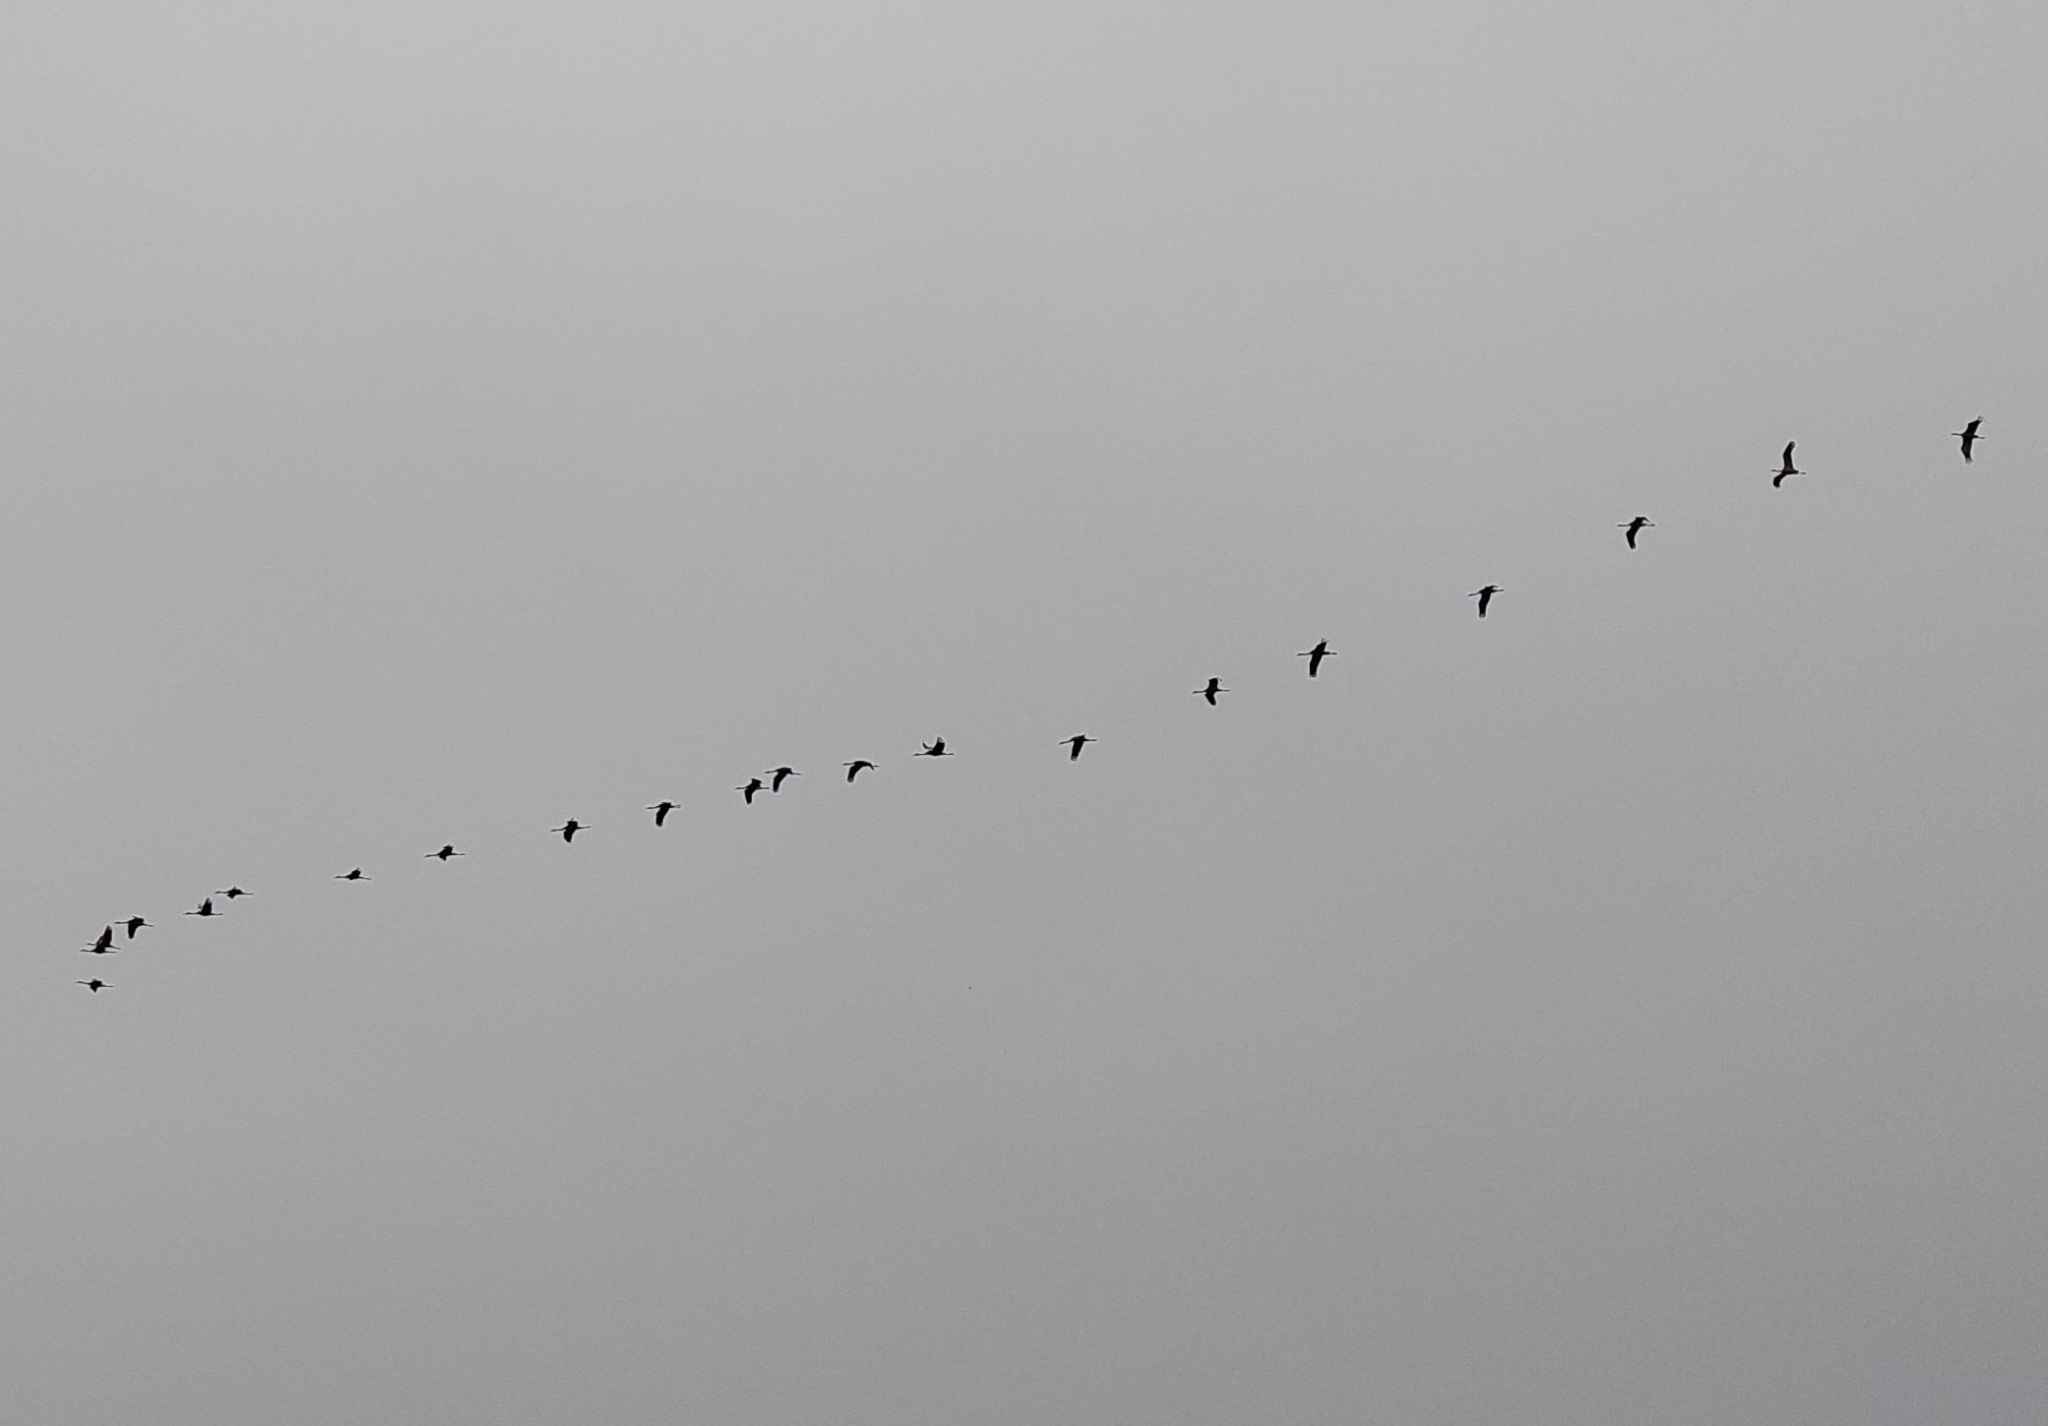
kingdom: Animalia
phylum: Chordata
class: Aves
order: Gruiformes
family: Gruidae
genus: Grus
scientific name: Grus grus
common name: Common crane
